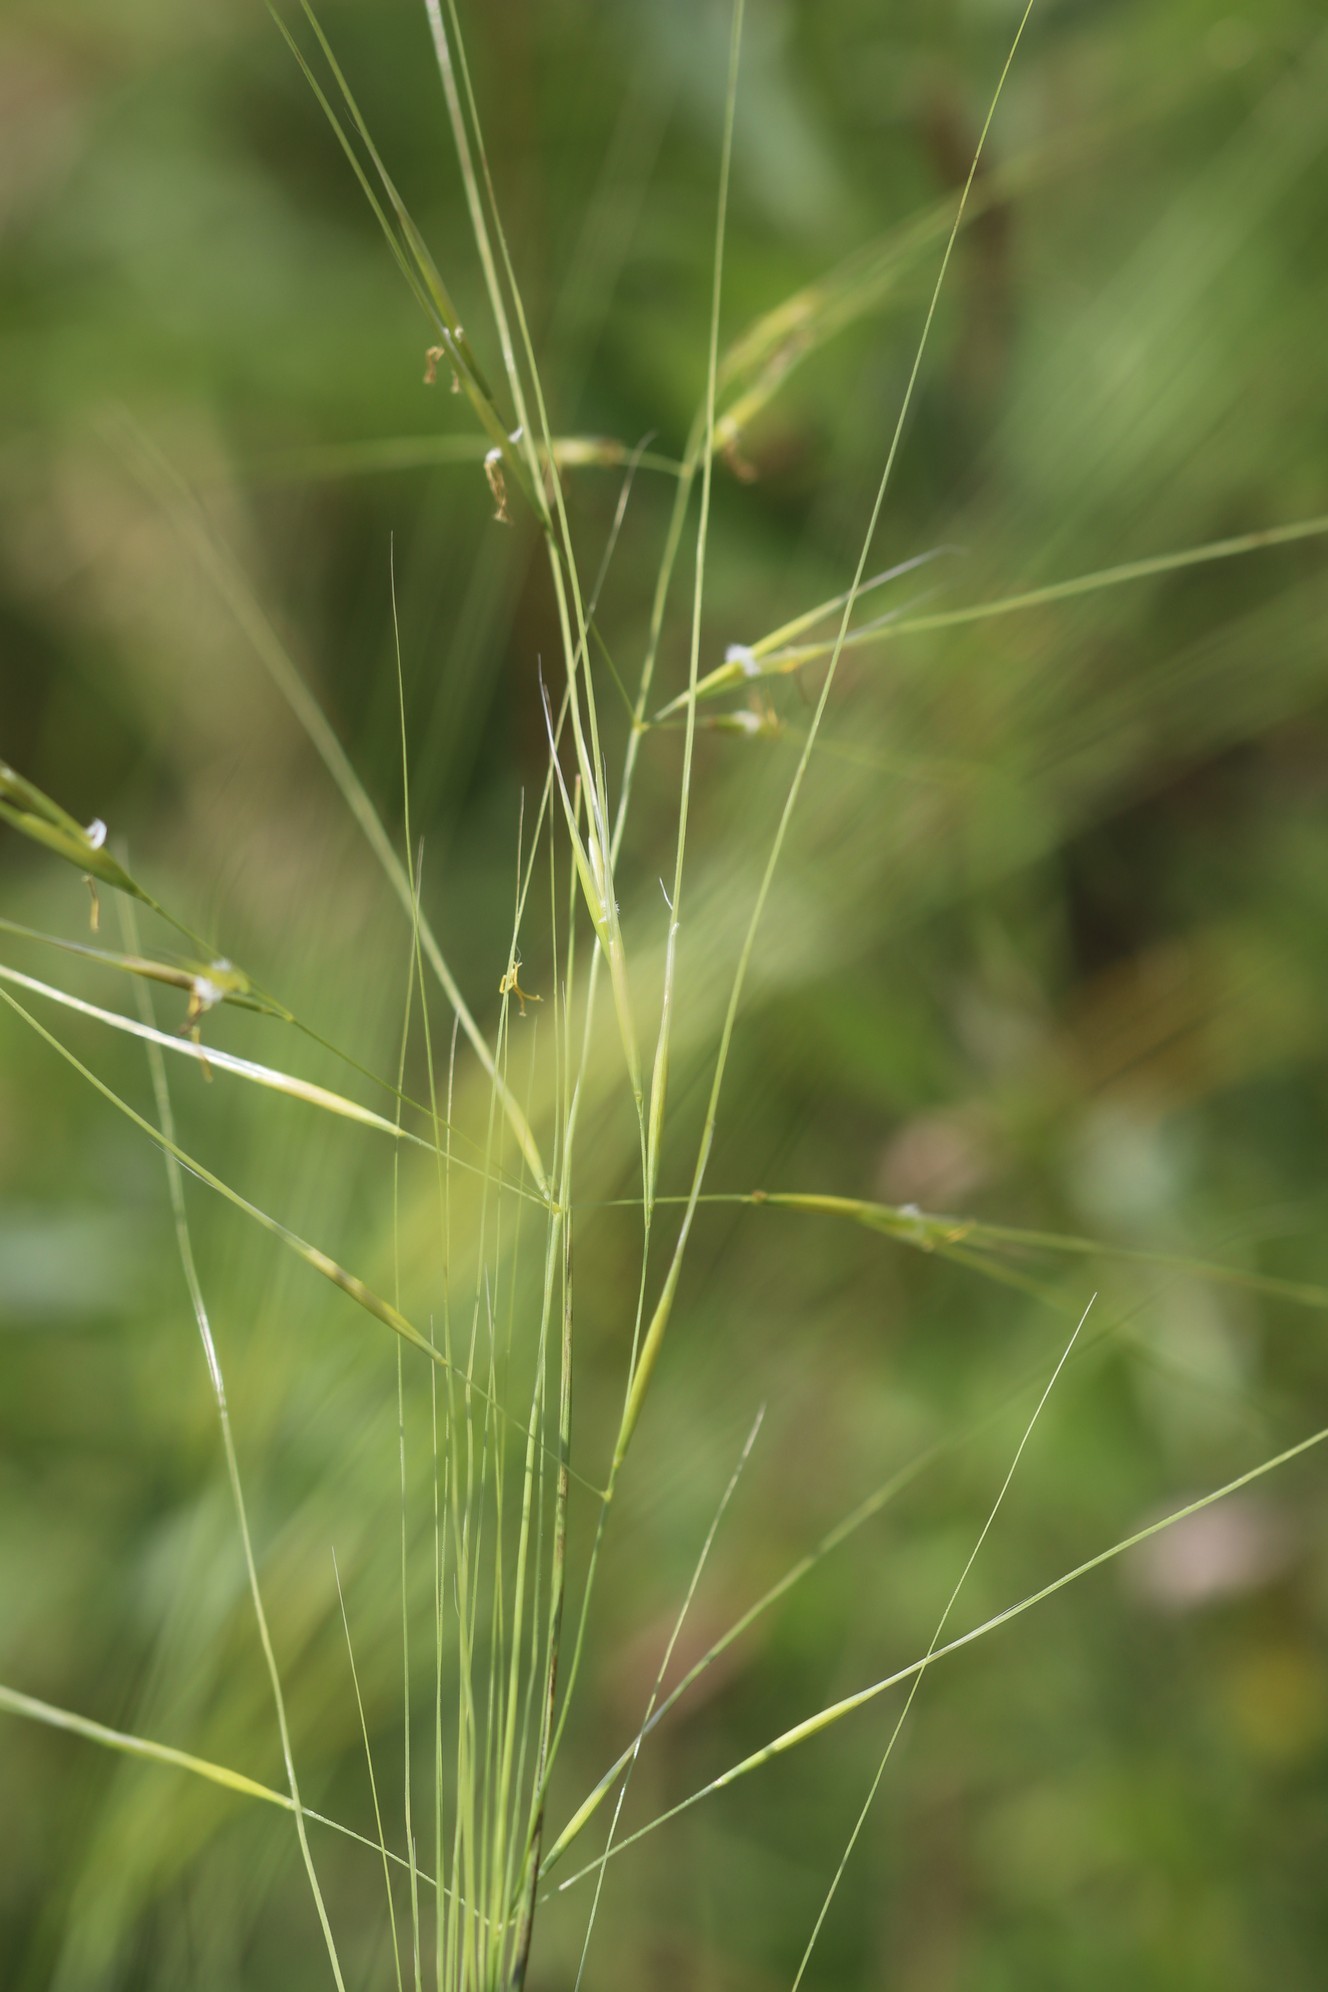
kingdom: Plantae
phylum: Tracheophyta
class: Liliopsida
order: Poales
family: Poaceae
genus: Stipa
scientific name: Stipa capillata
